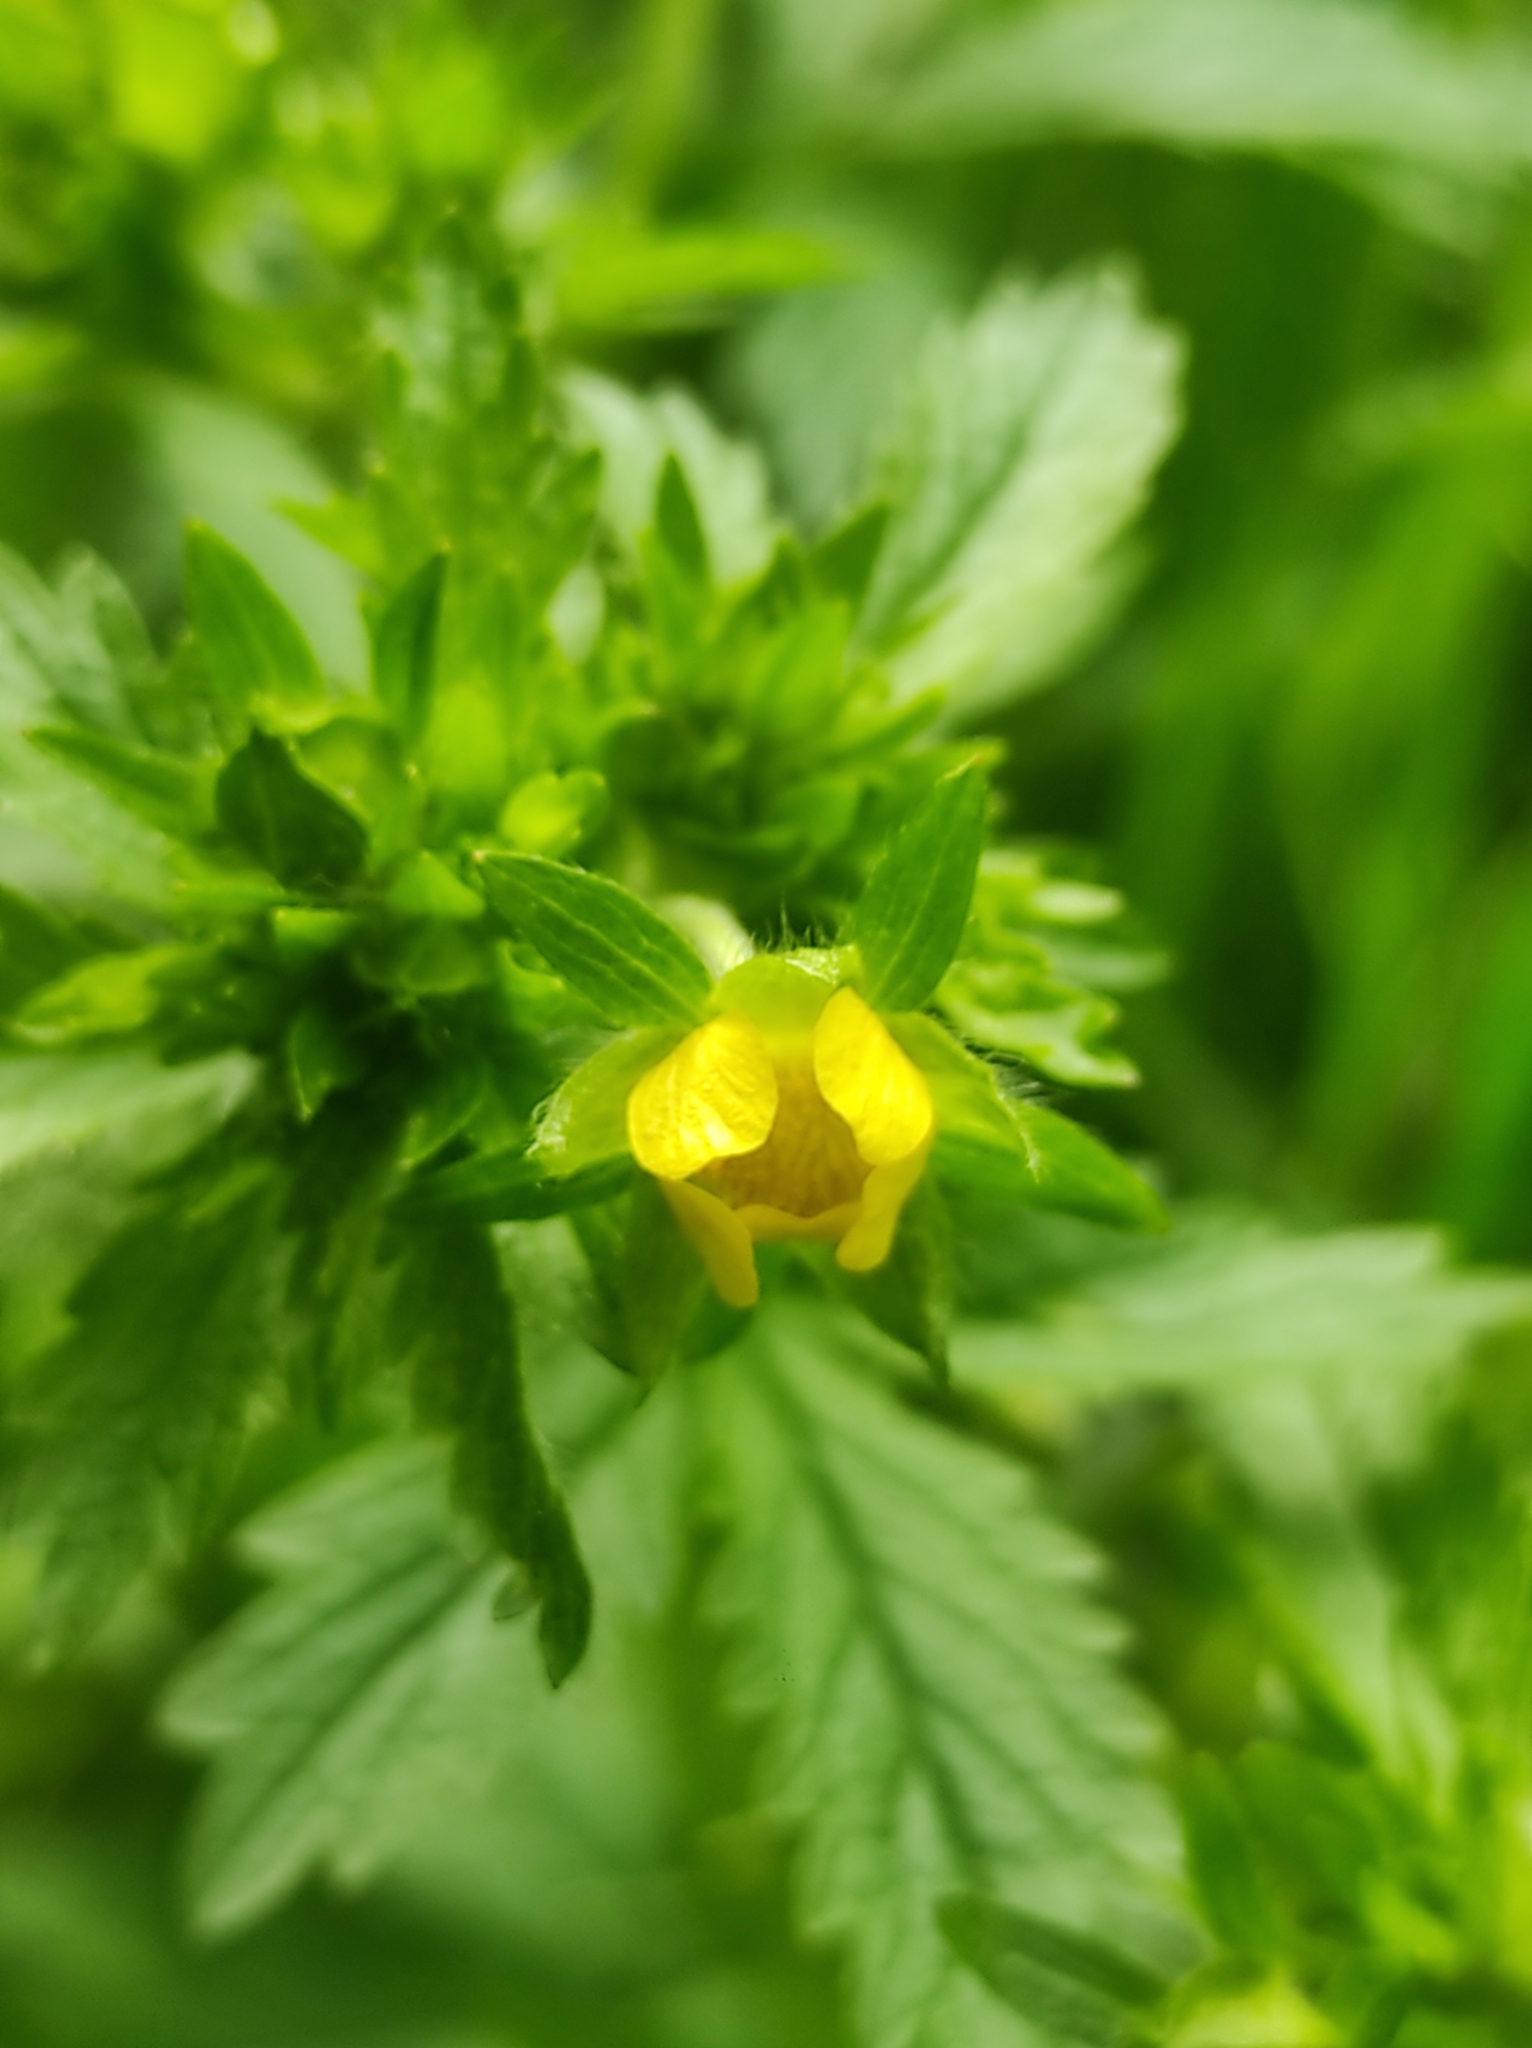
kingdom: Plantae
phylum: Tracheophyta
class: Magnoliopsida
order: Rosales
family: Rosaceae
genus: Potentilla
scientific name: Potentilla norvegica
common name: Ternate-leaved cinquefoil
